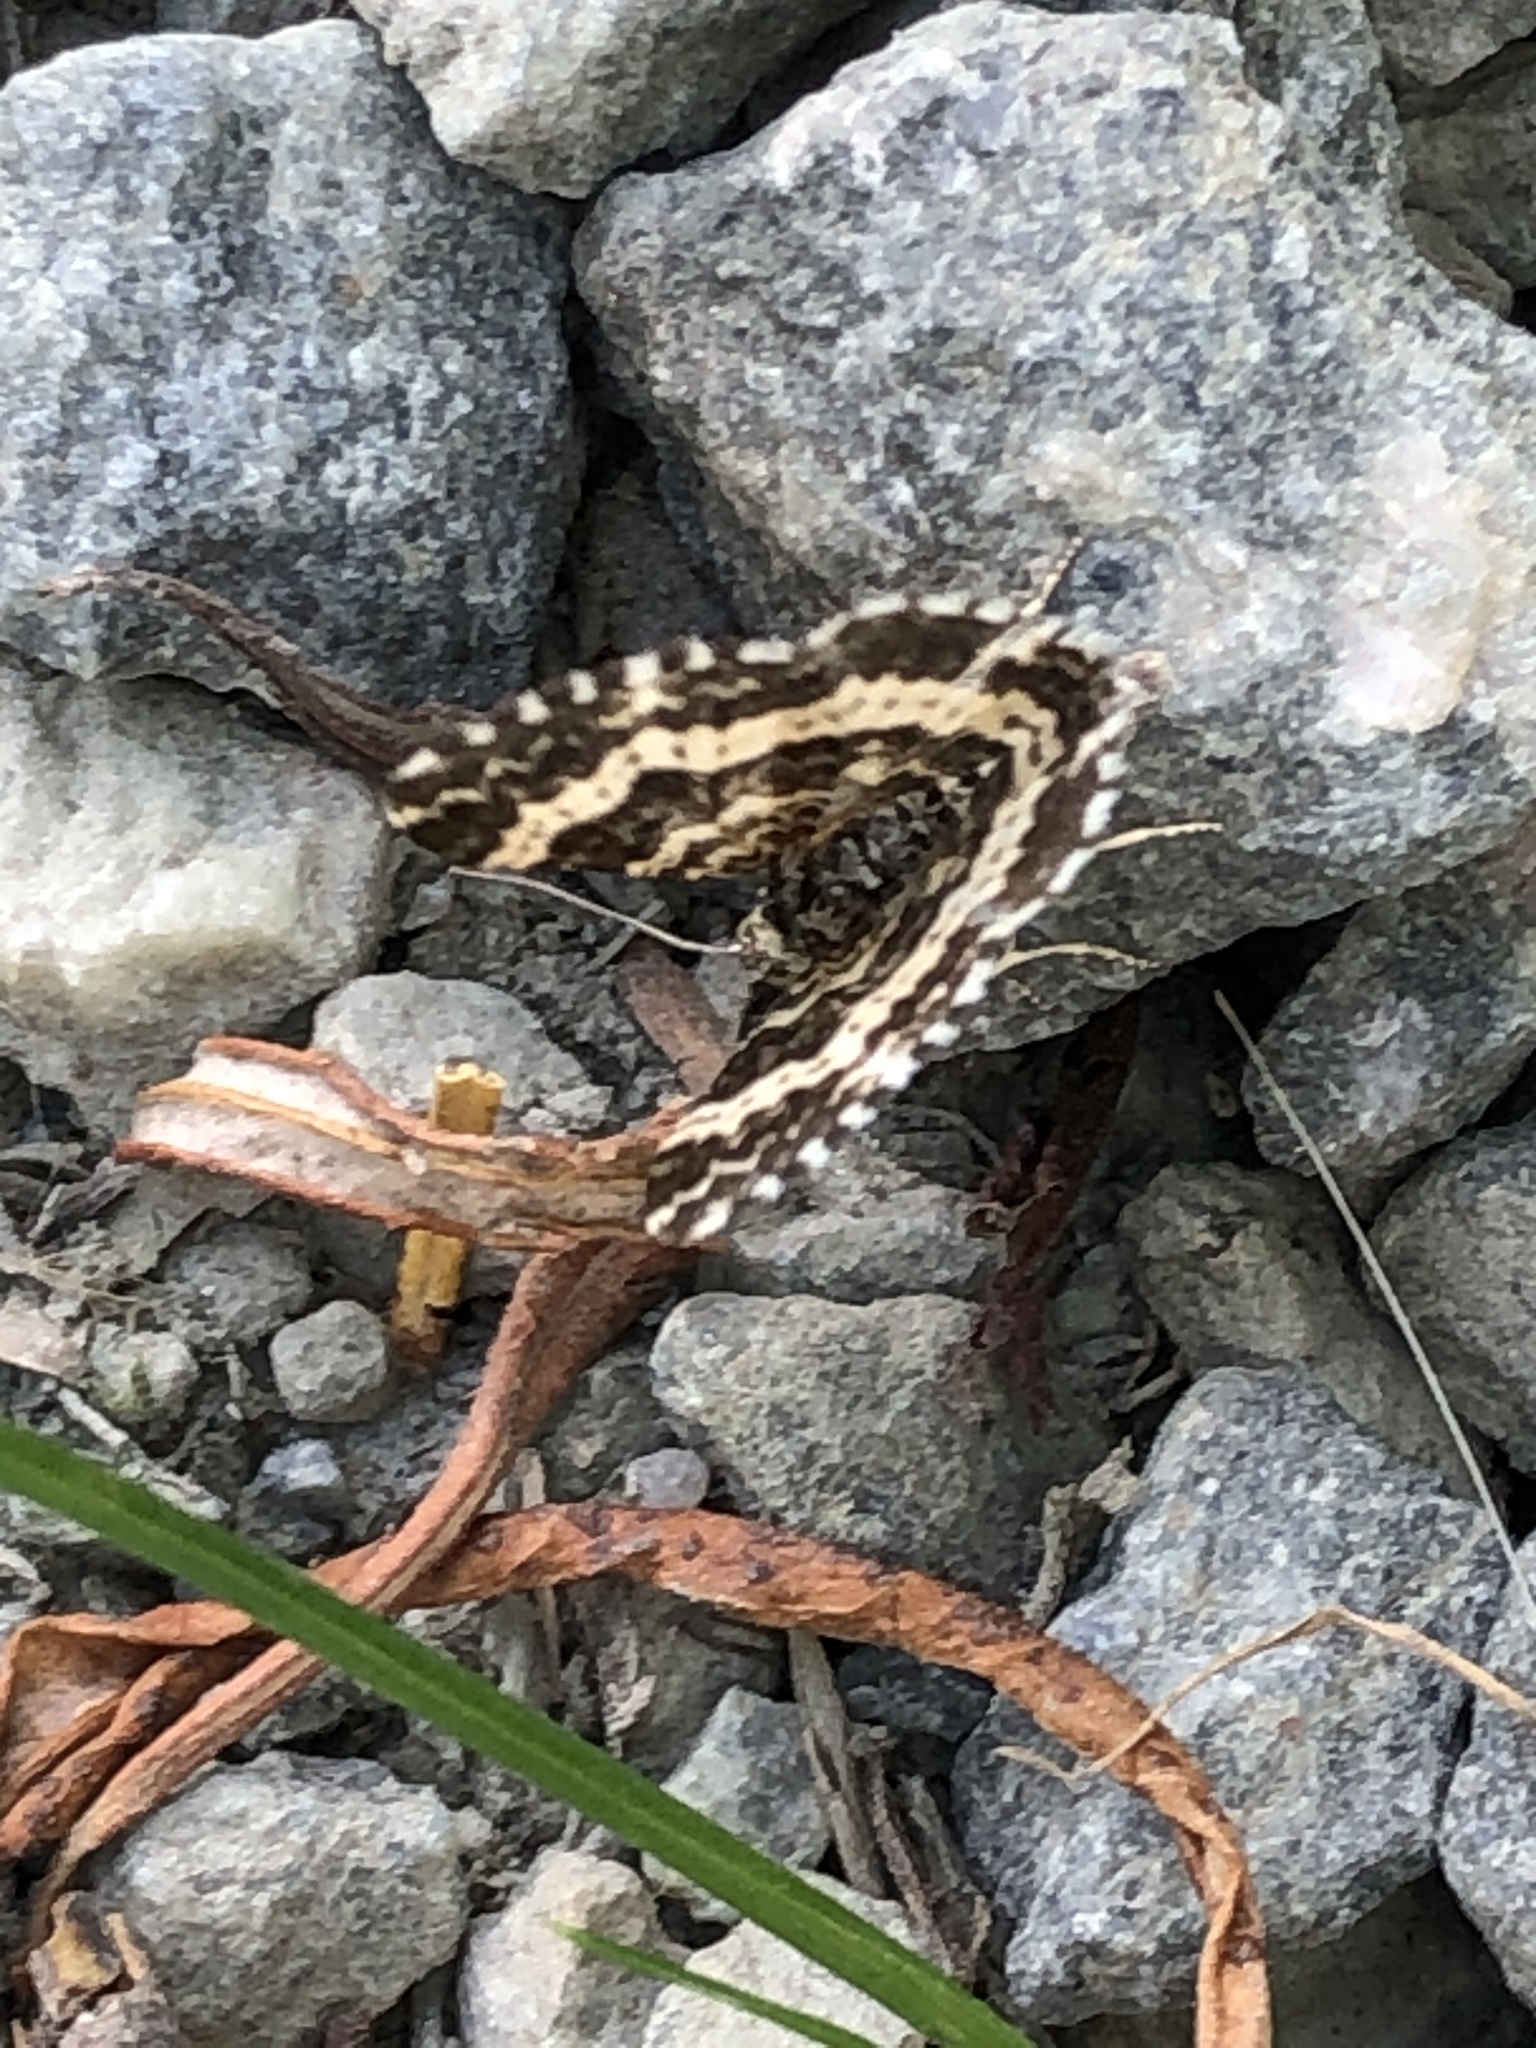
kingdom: Animalia
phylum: Arthropoda
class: Insecta
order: Lepidoptera
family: Geometridae
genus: Epirrhoe
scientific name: Epirrhoe tristata
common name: Small argent & sable
